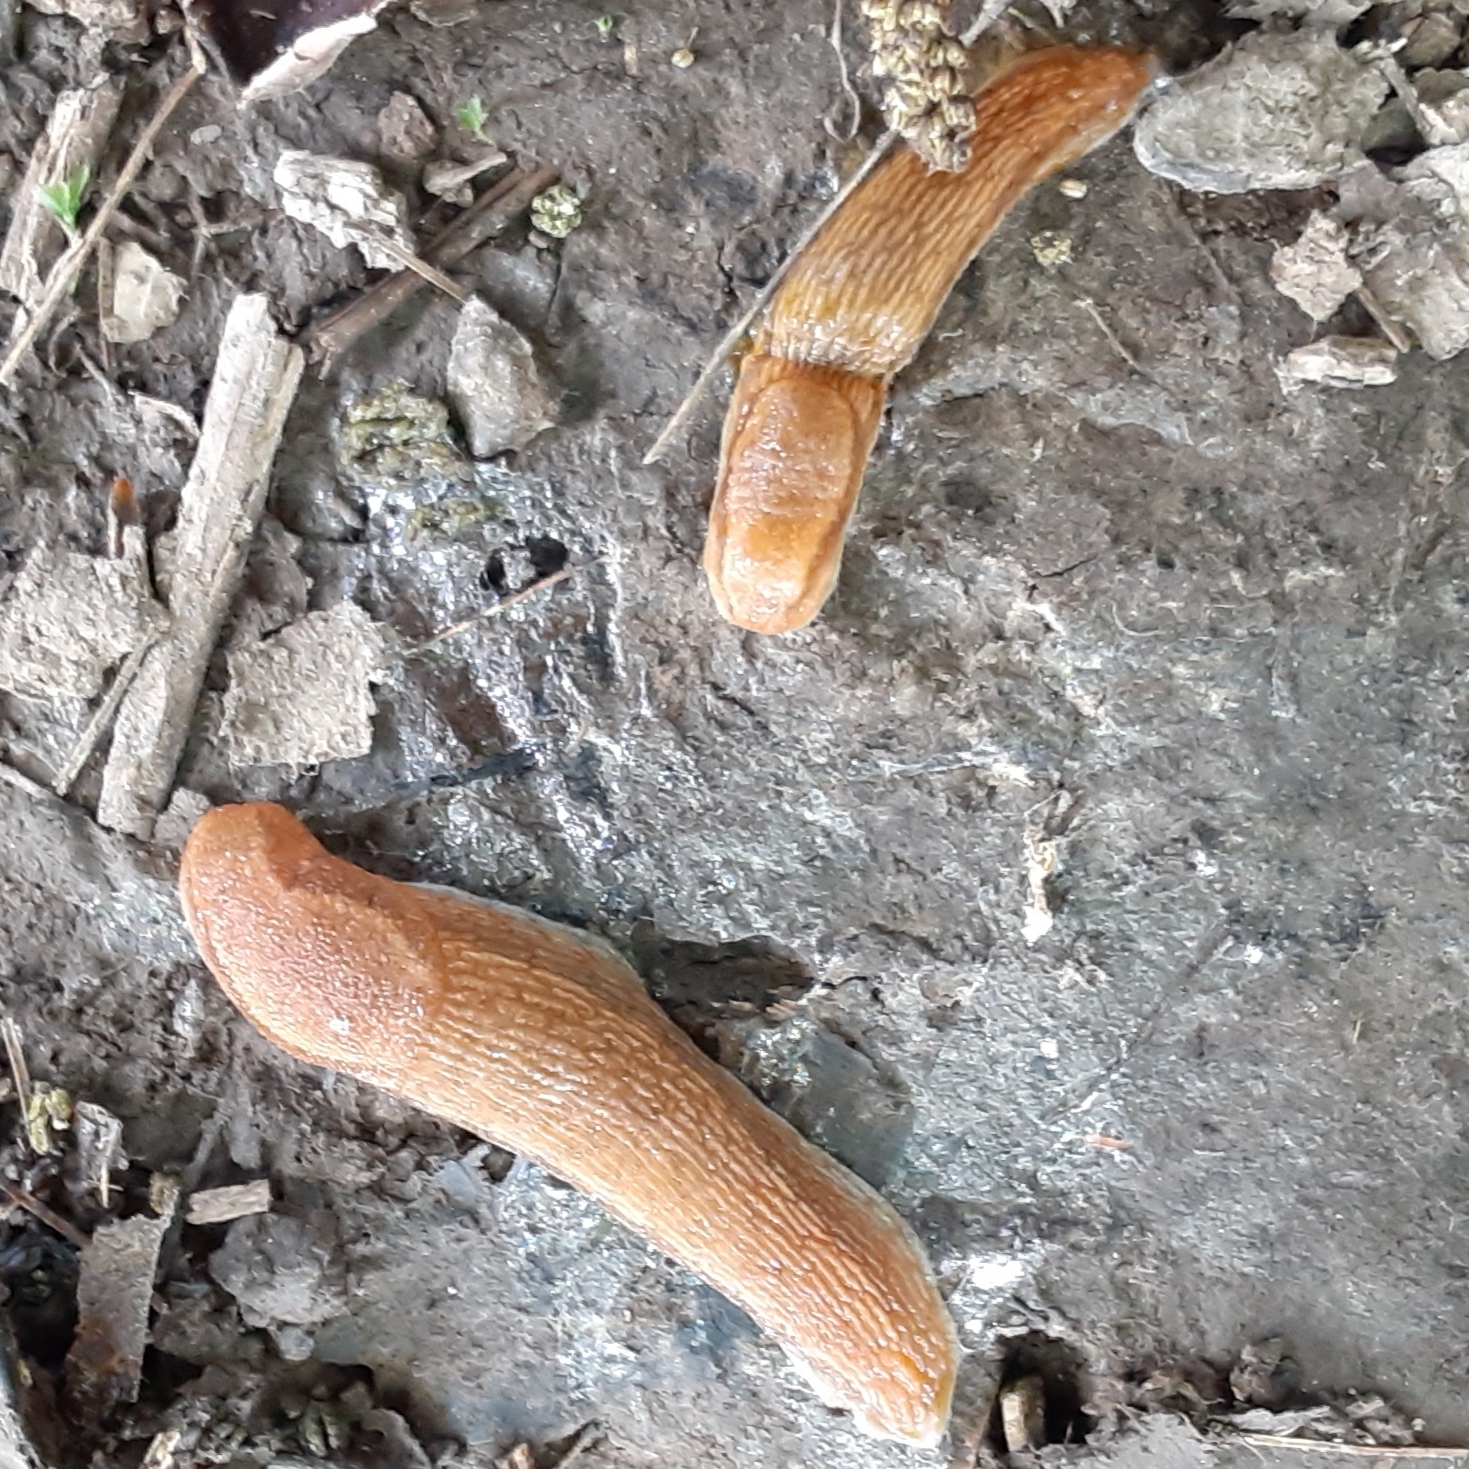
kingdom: Animalia
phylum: Mollusca
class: Gastropoda
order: Stylommatophora
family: Arionidae
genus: Arion
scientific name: Arion subfuscus
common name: Dusky arion
